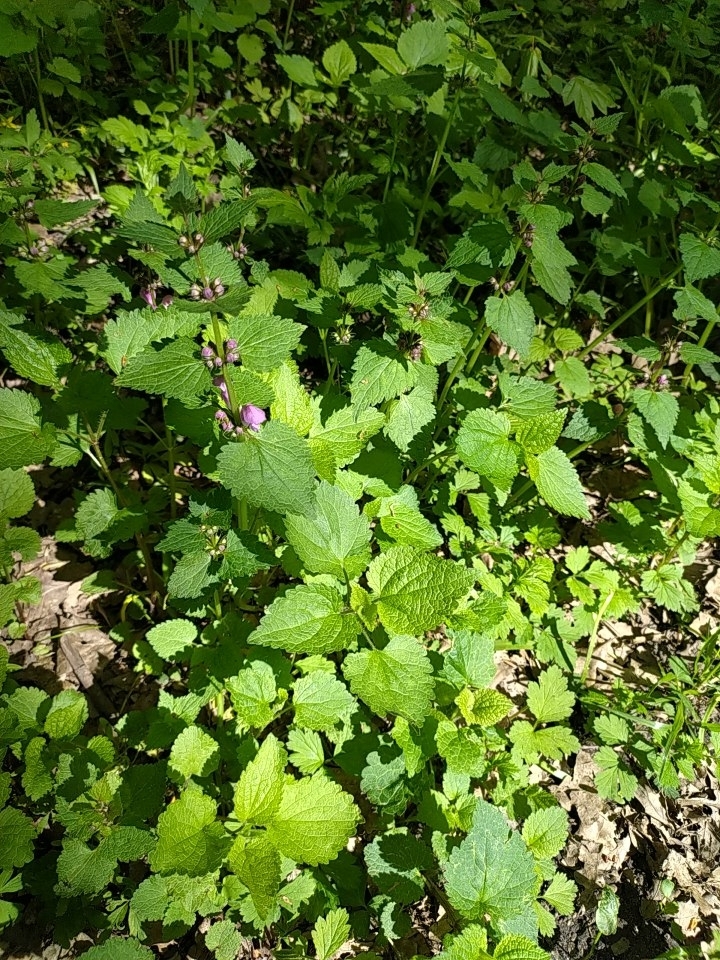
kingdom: Plantae
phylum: Tracheophyta
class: Magnoliopsida
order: Lamiales
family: Lamiaceae
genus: Lamium
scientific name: Lamium maculatum
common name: Spotted dead-nettle
